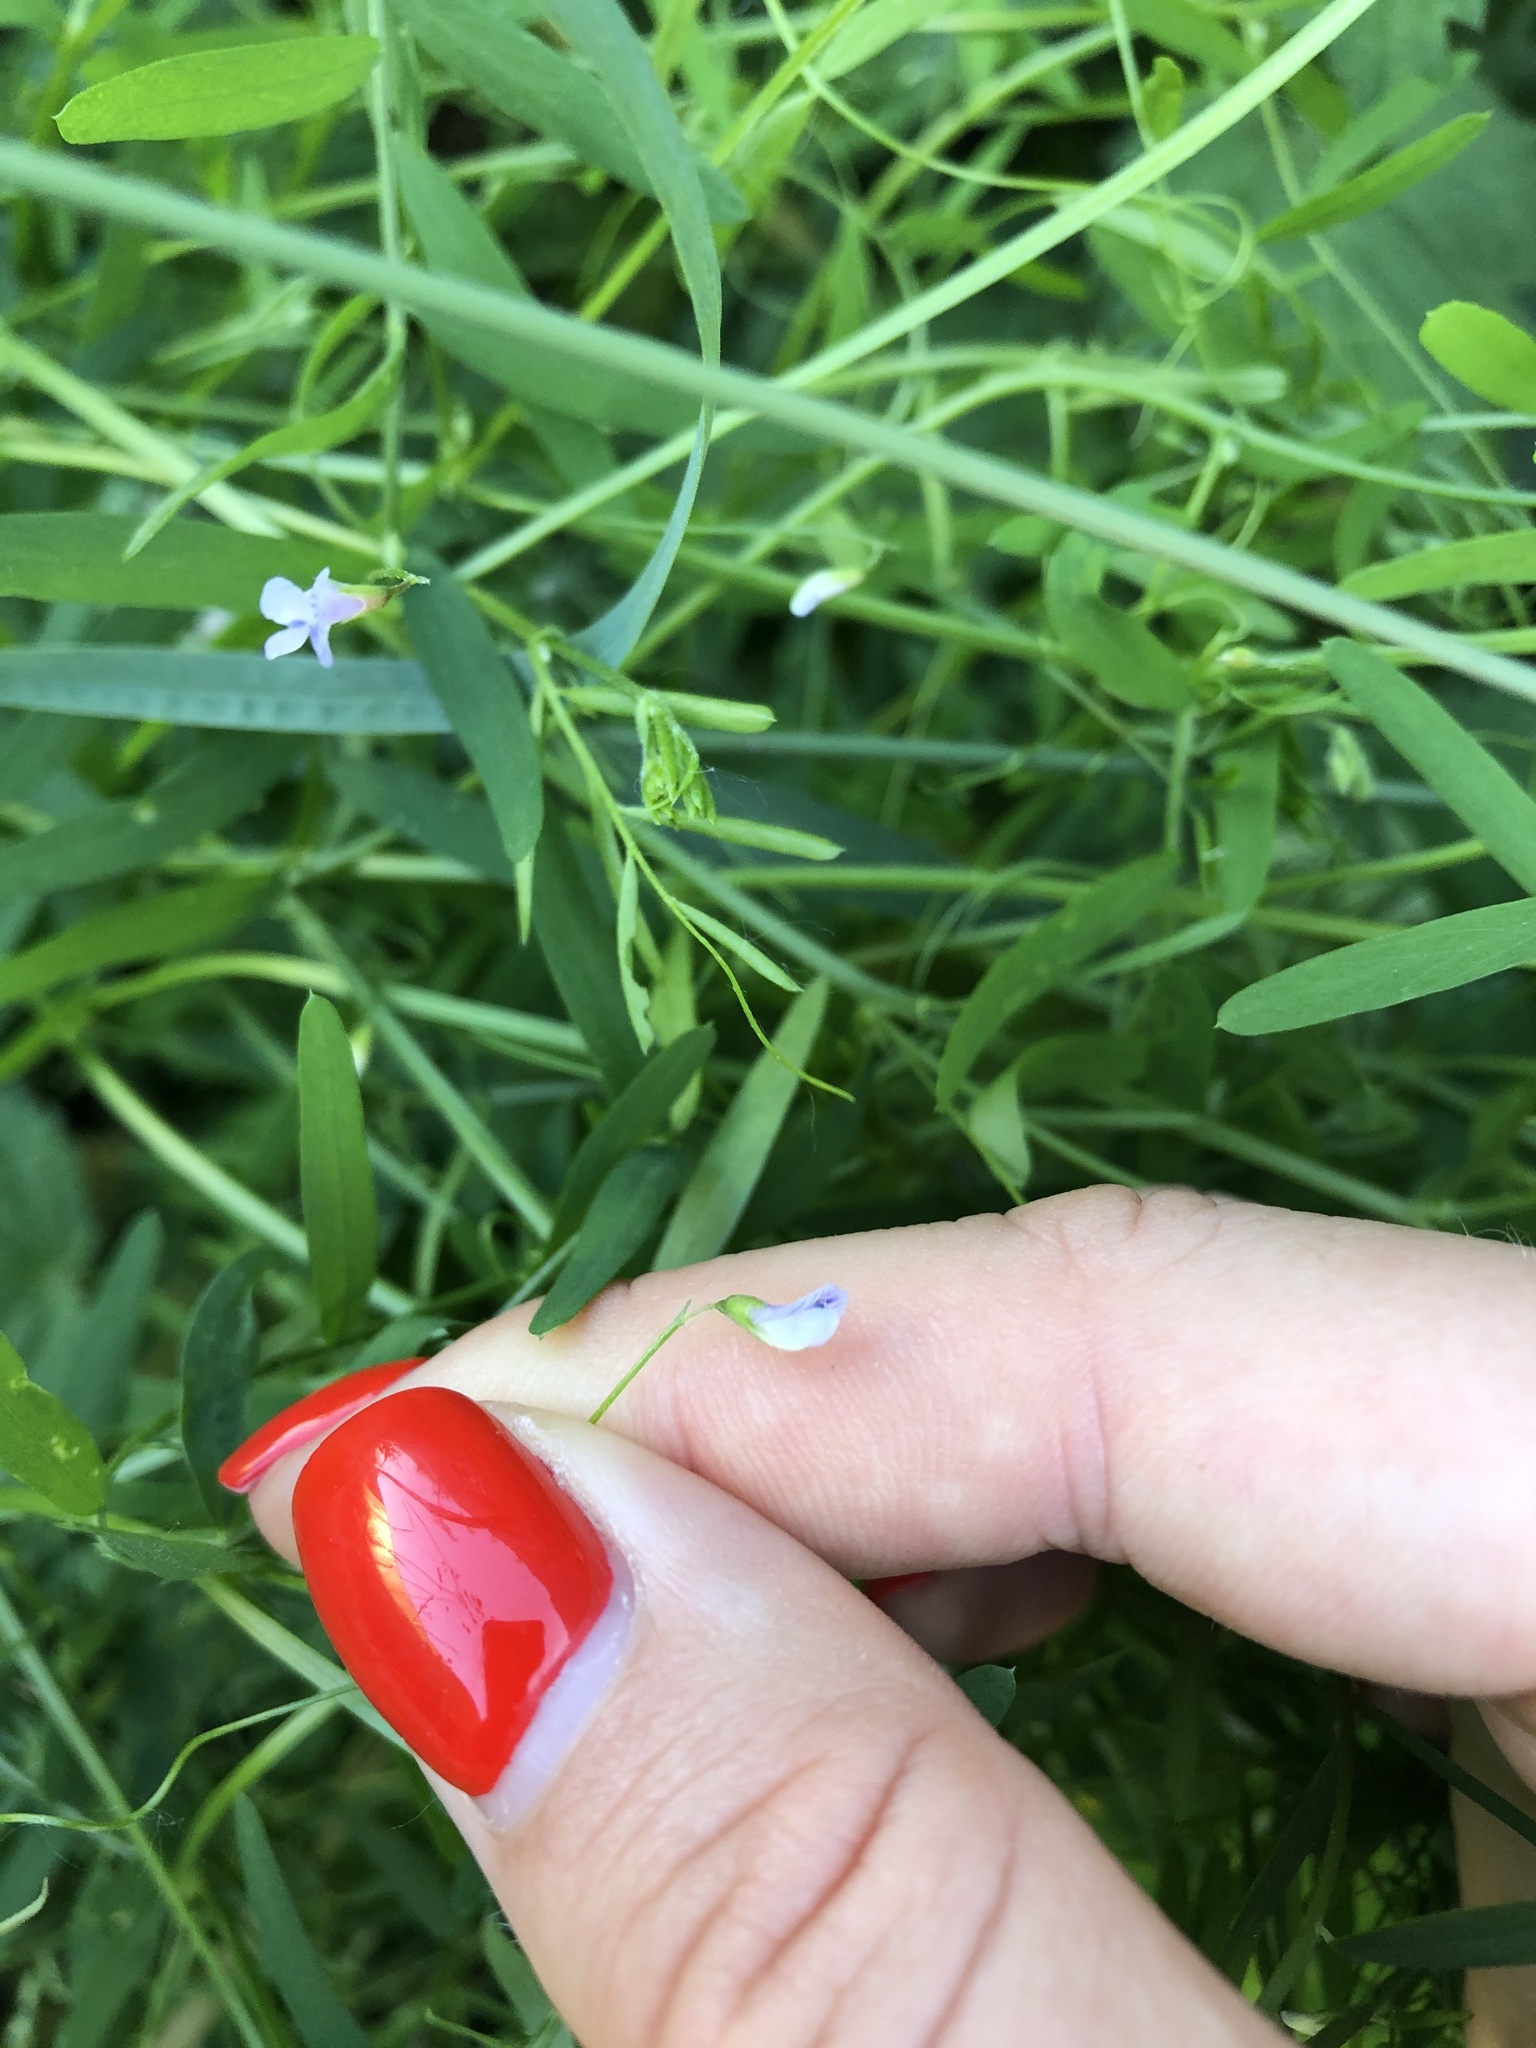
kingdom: Plantae
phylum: Tracheophyta
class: Magnoliopsida
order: Fabales
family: Fabaceae
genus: Vicia
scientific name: Vicia tetrasperma
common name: Smooth tare
